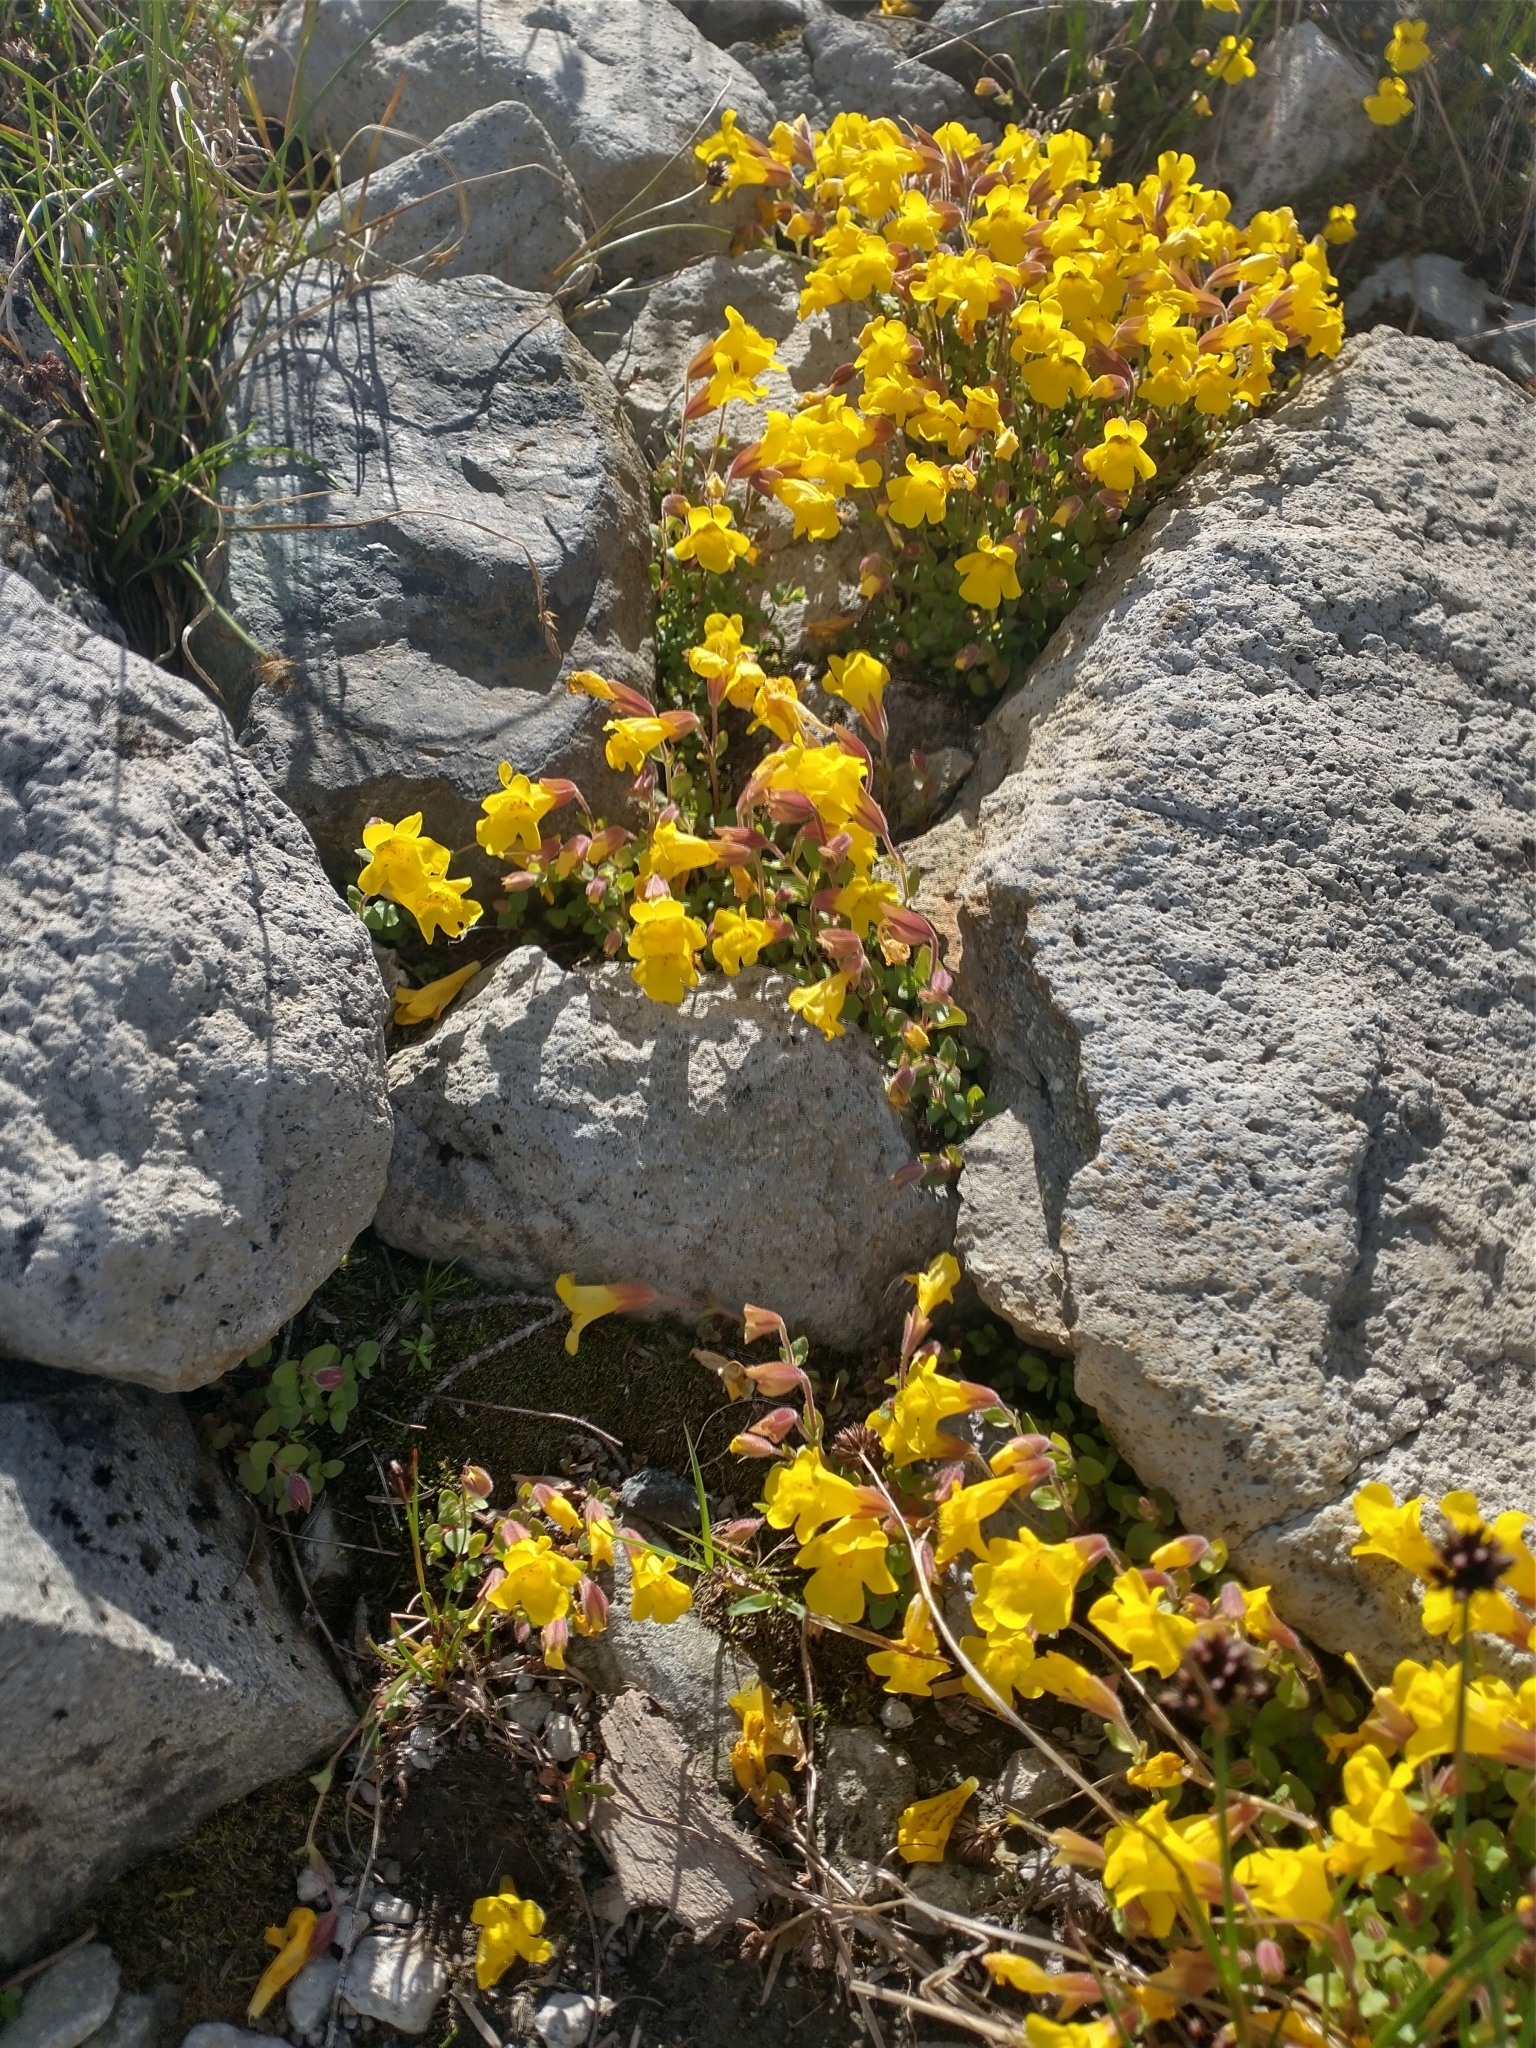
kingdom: Plantae
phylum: Tracheophyta
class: Magnoliopsida
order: Lamiales
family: Phrymaceae
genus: Erythranthe
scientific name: Erythranthe caespitosa
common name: Subalpine monkeyflower
